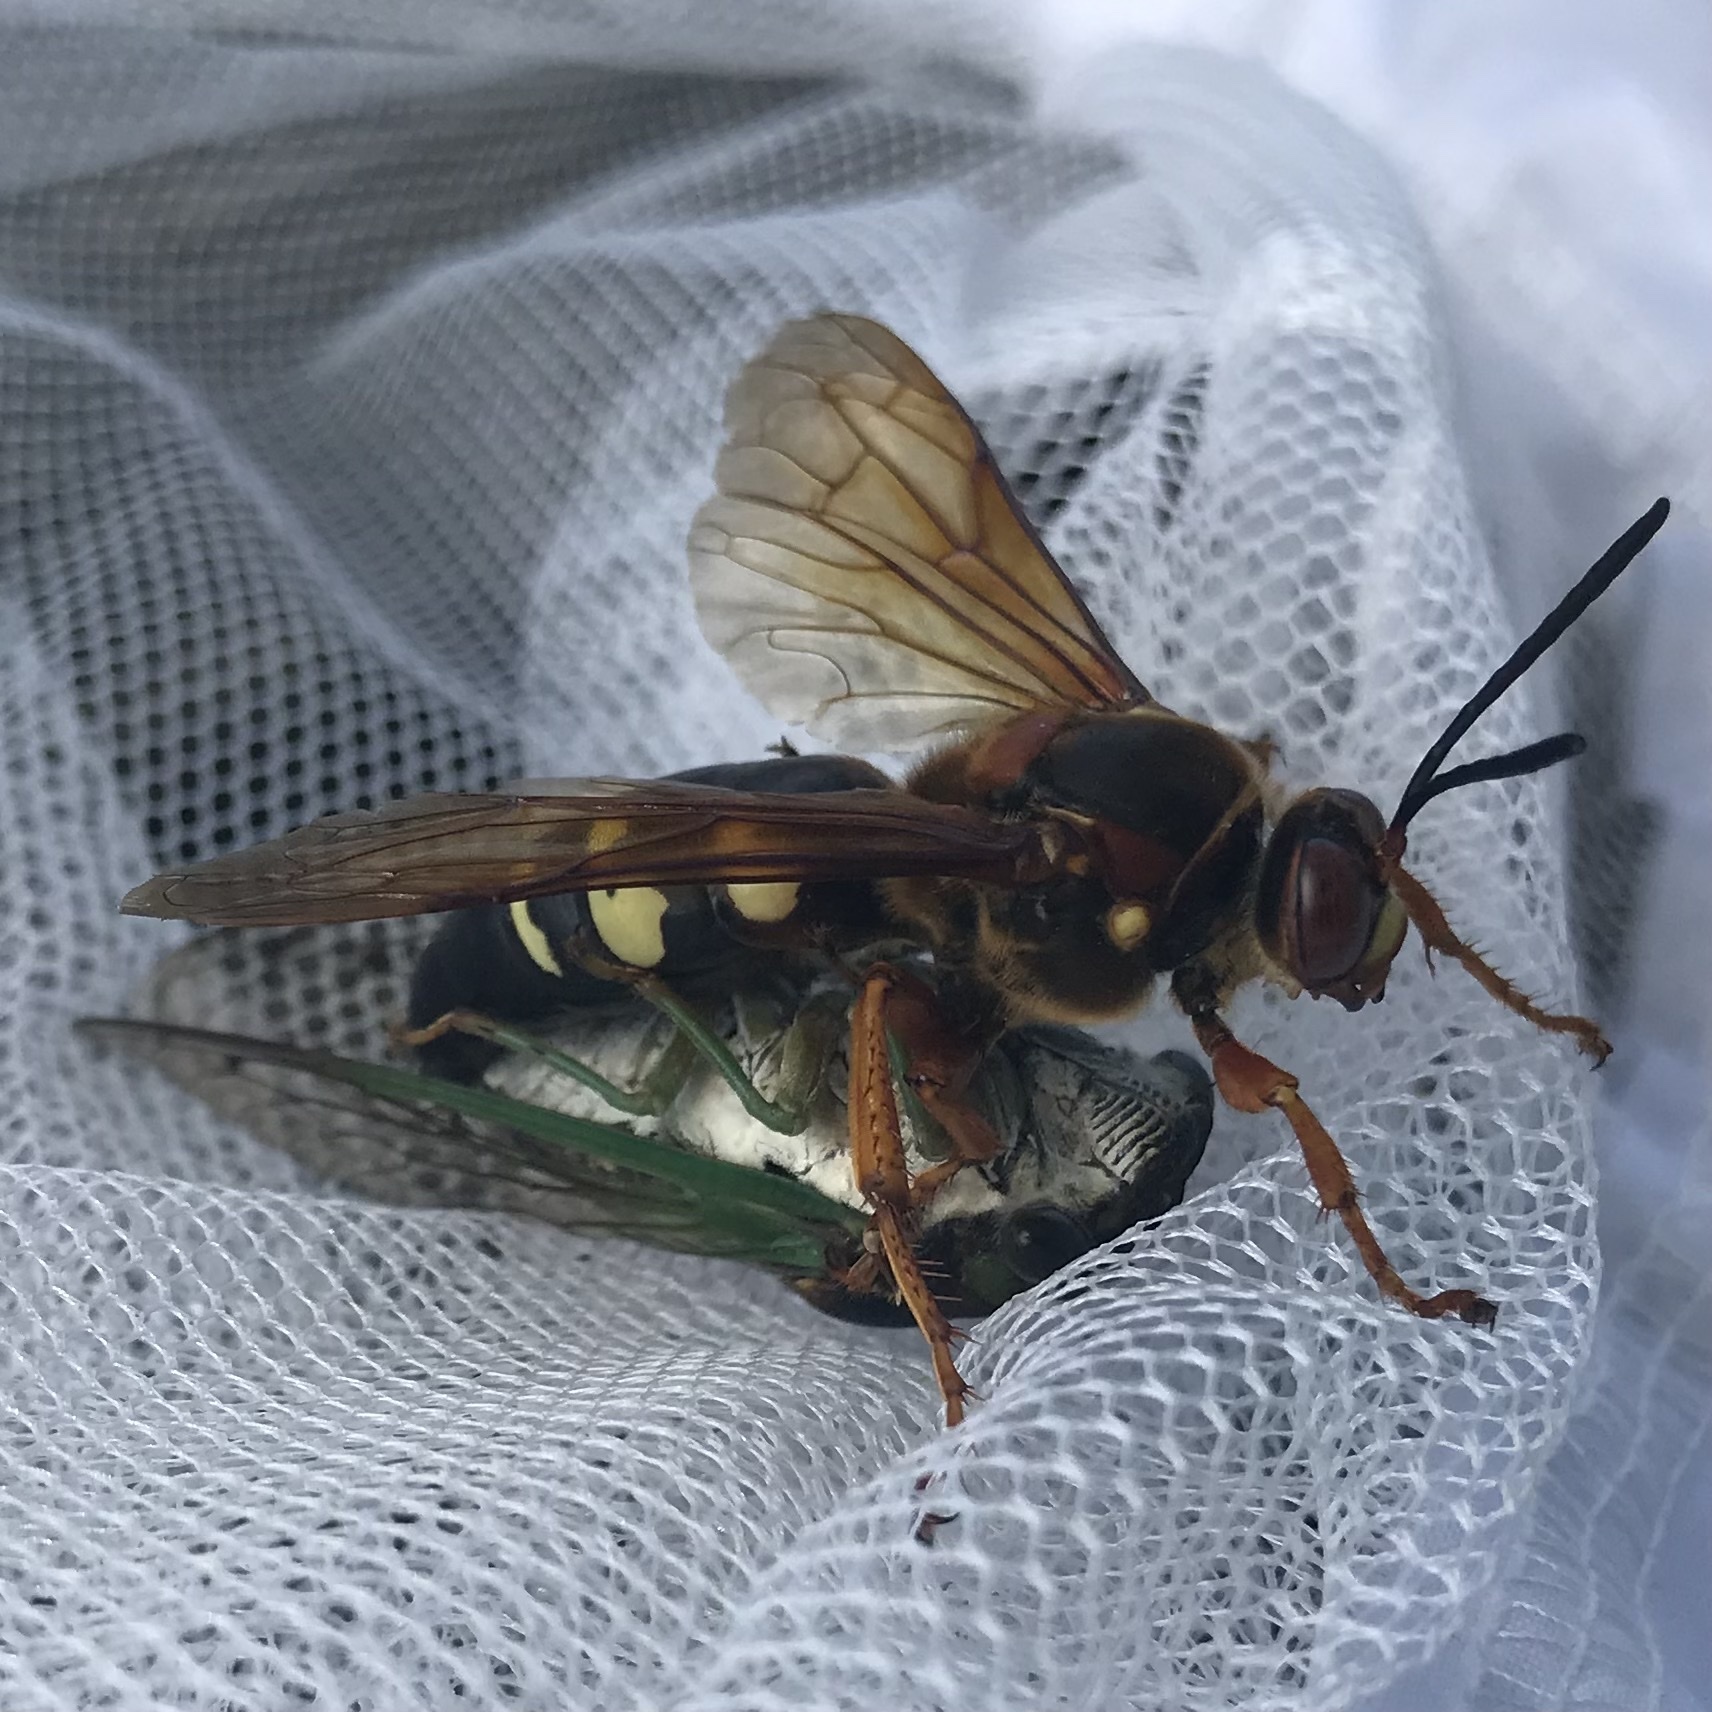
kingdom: Animalia
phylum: Arthropoda
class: Insecta
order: Hemiptera
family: Cicadidae
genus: Neotibicen
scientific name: Neotibicen tibicen
